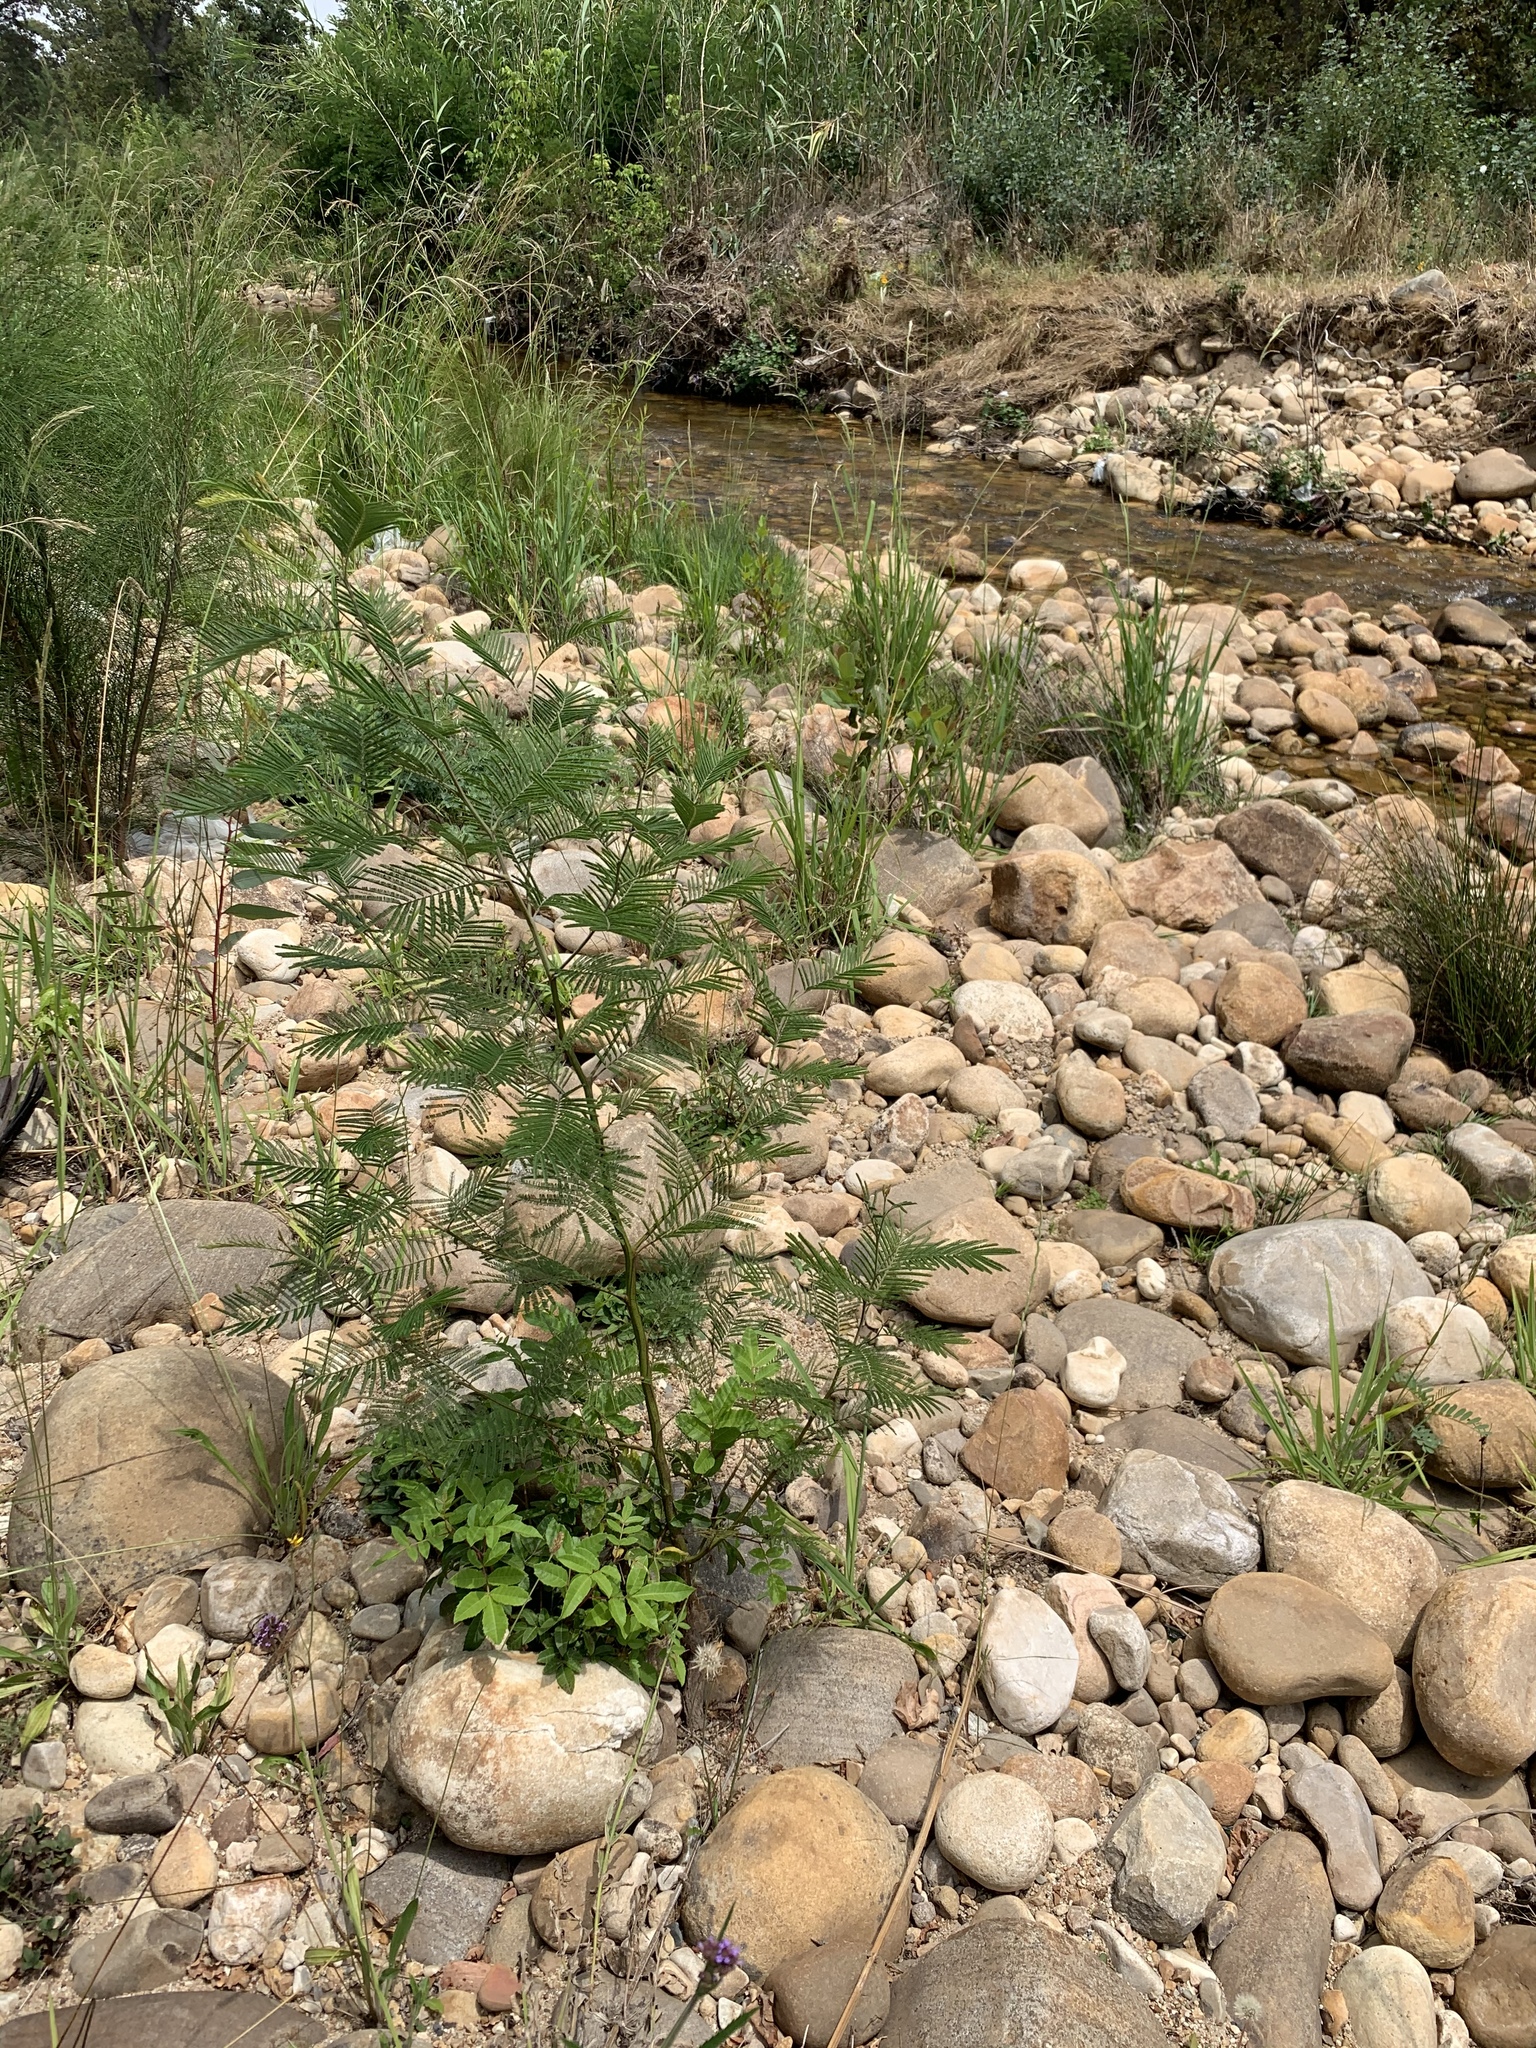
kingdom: Plantae
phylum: Tracheophyta
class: Magnoliopsida
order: Fabales
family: Fabaceae
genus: Acacia
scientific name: Acacia mearnsii
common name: Black wattle
